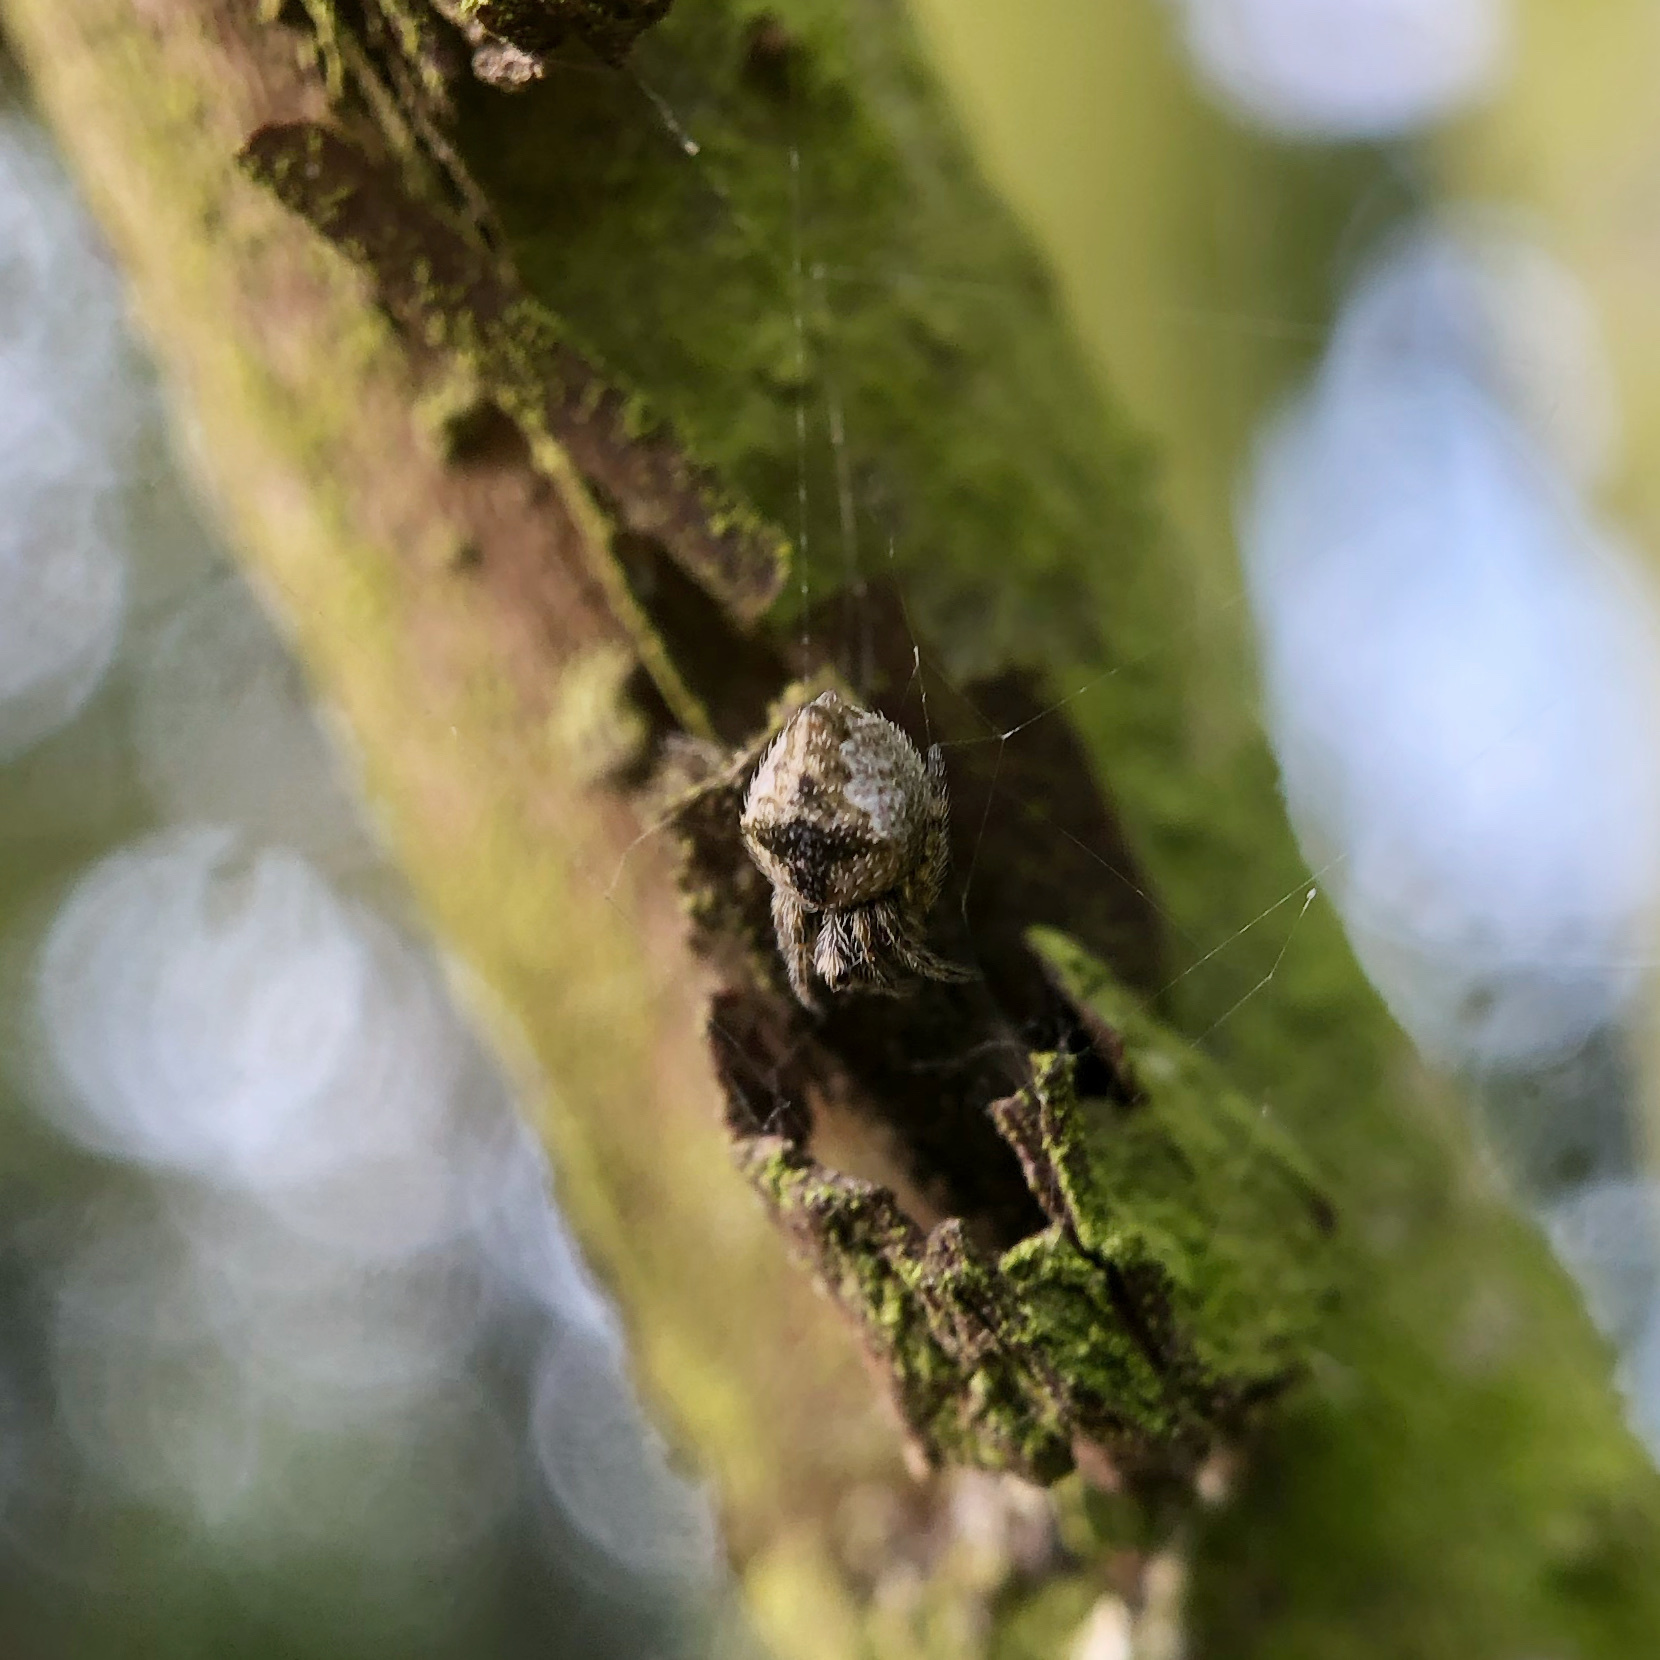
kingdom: Animalia
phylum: Arthropoda
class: Arachnida
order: Araneae
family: Araneidae
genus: Eriophora
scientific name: Eriophora pustulosa
